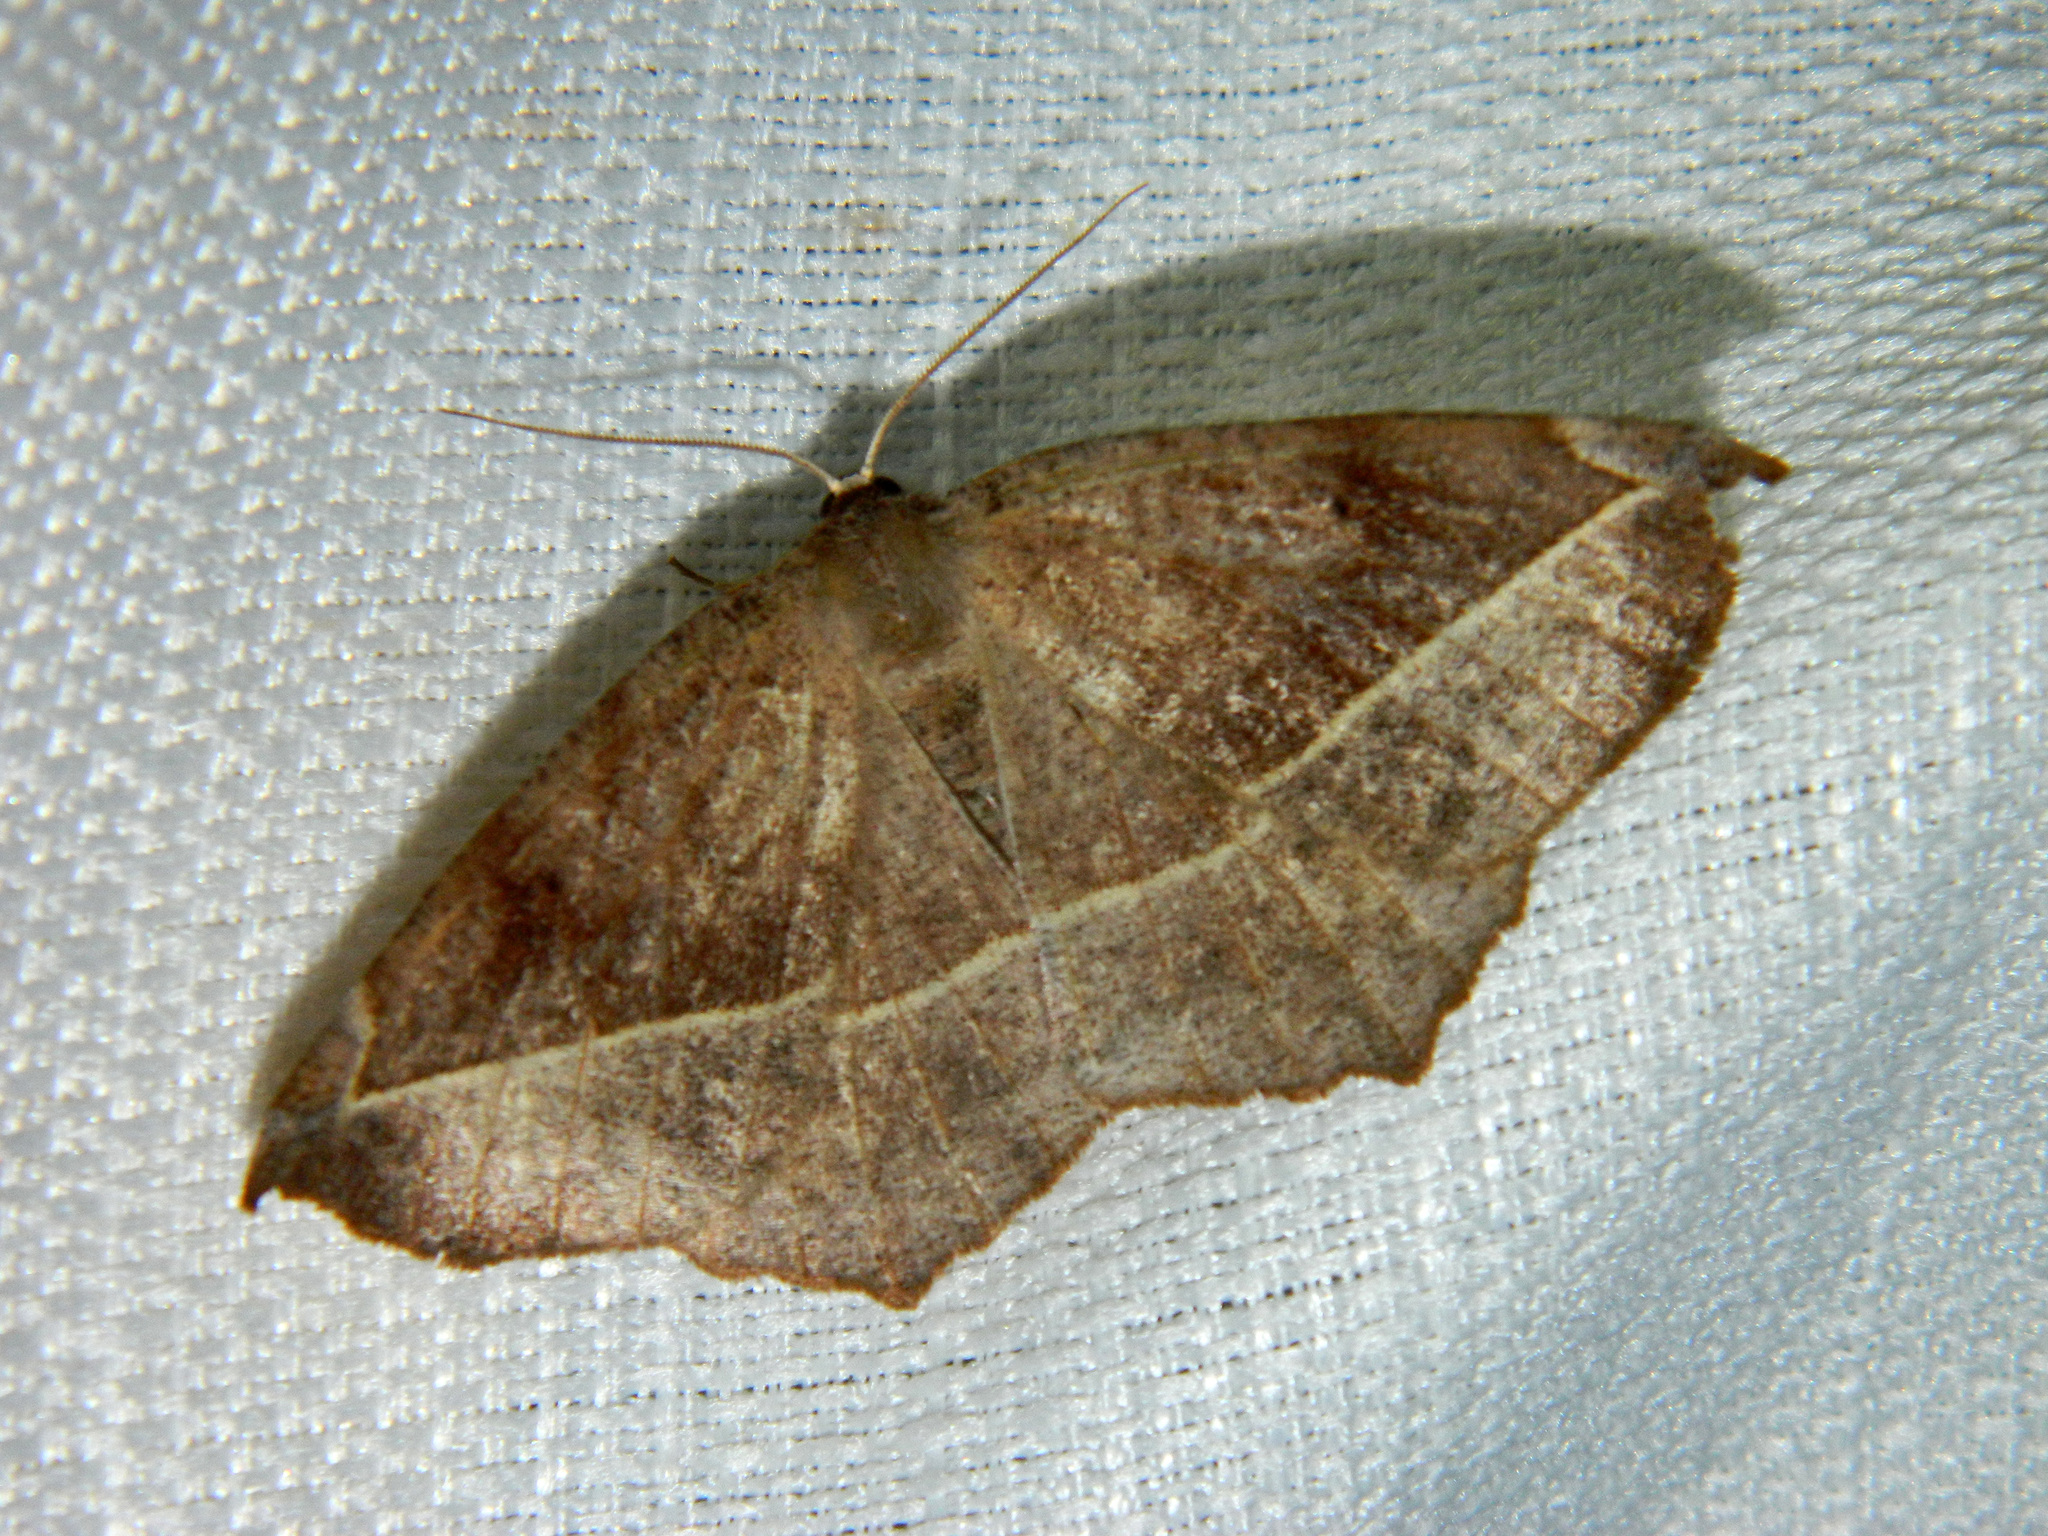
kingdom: Animalia
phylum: Arthropoda
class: Insecta
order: Lepidoptera
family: Geometridae
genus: Eutrapela
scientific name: Eutrapela clemataria
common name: Curved-toothed geometer
